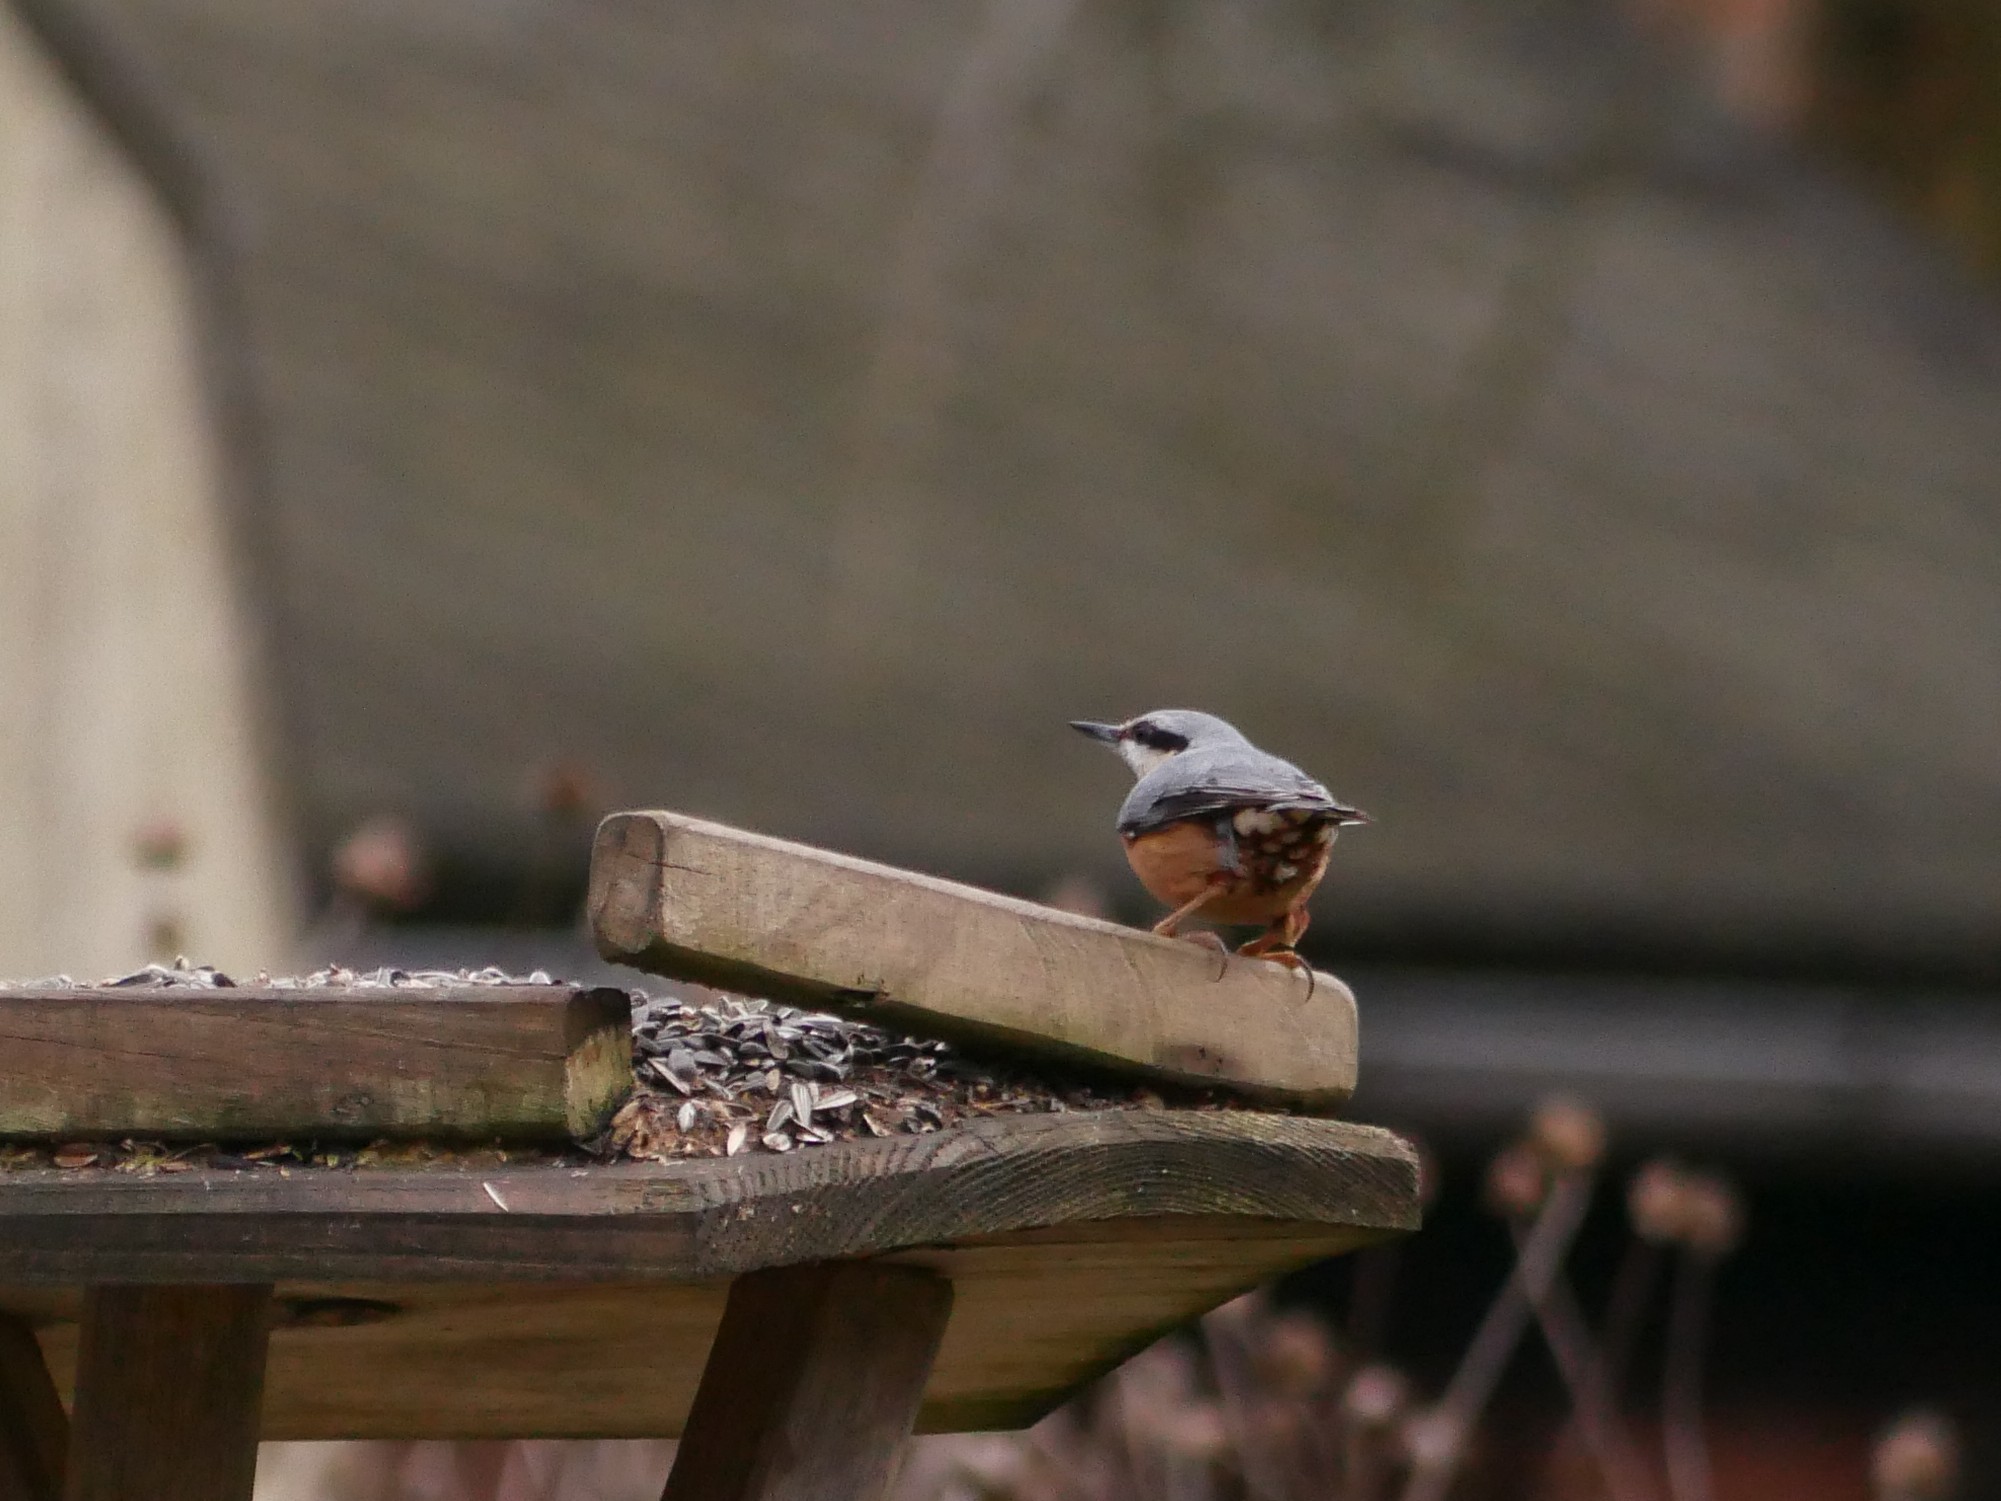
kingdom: Animalia
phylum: Chordata
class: Aves
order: Passeriformes
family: Sittidae
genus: Sitta
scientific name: Sitta europaea
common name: Eurasian nuthatch
